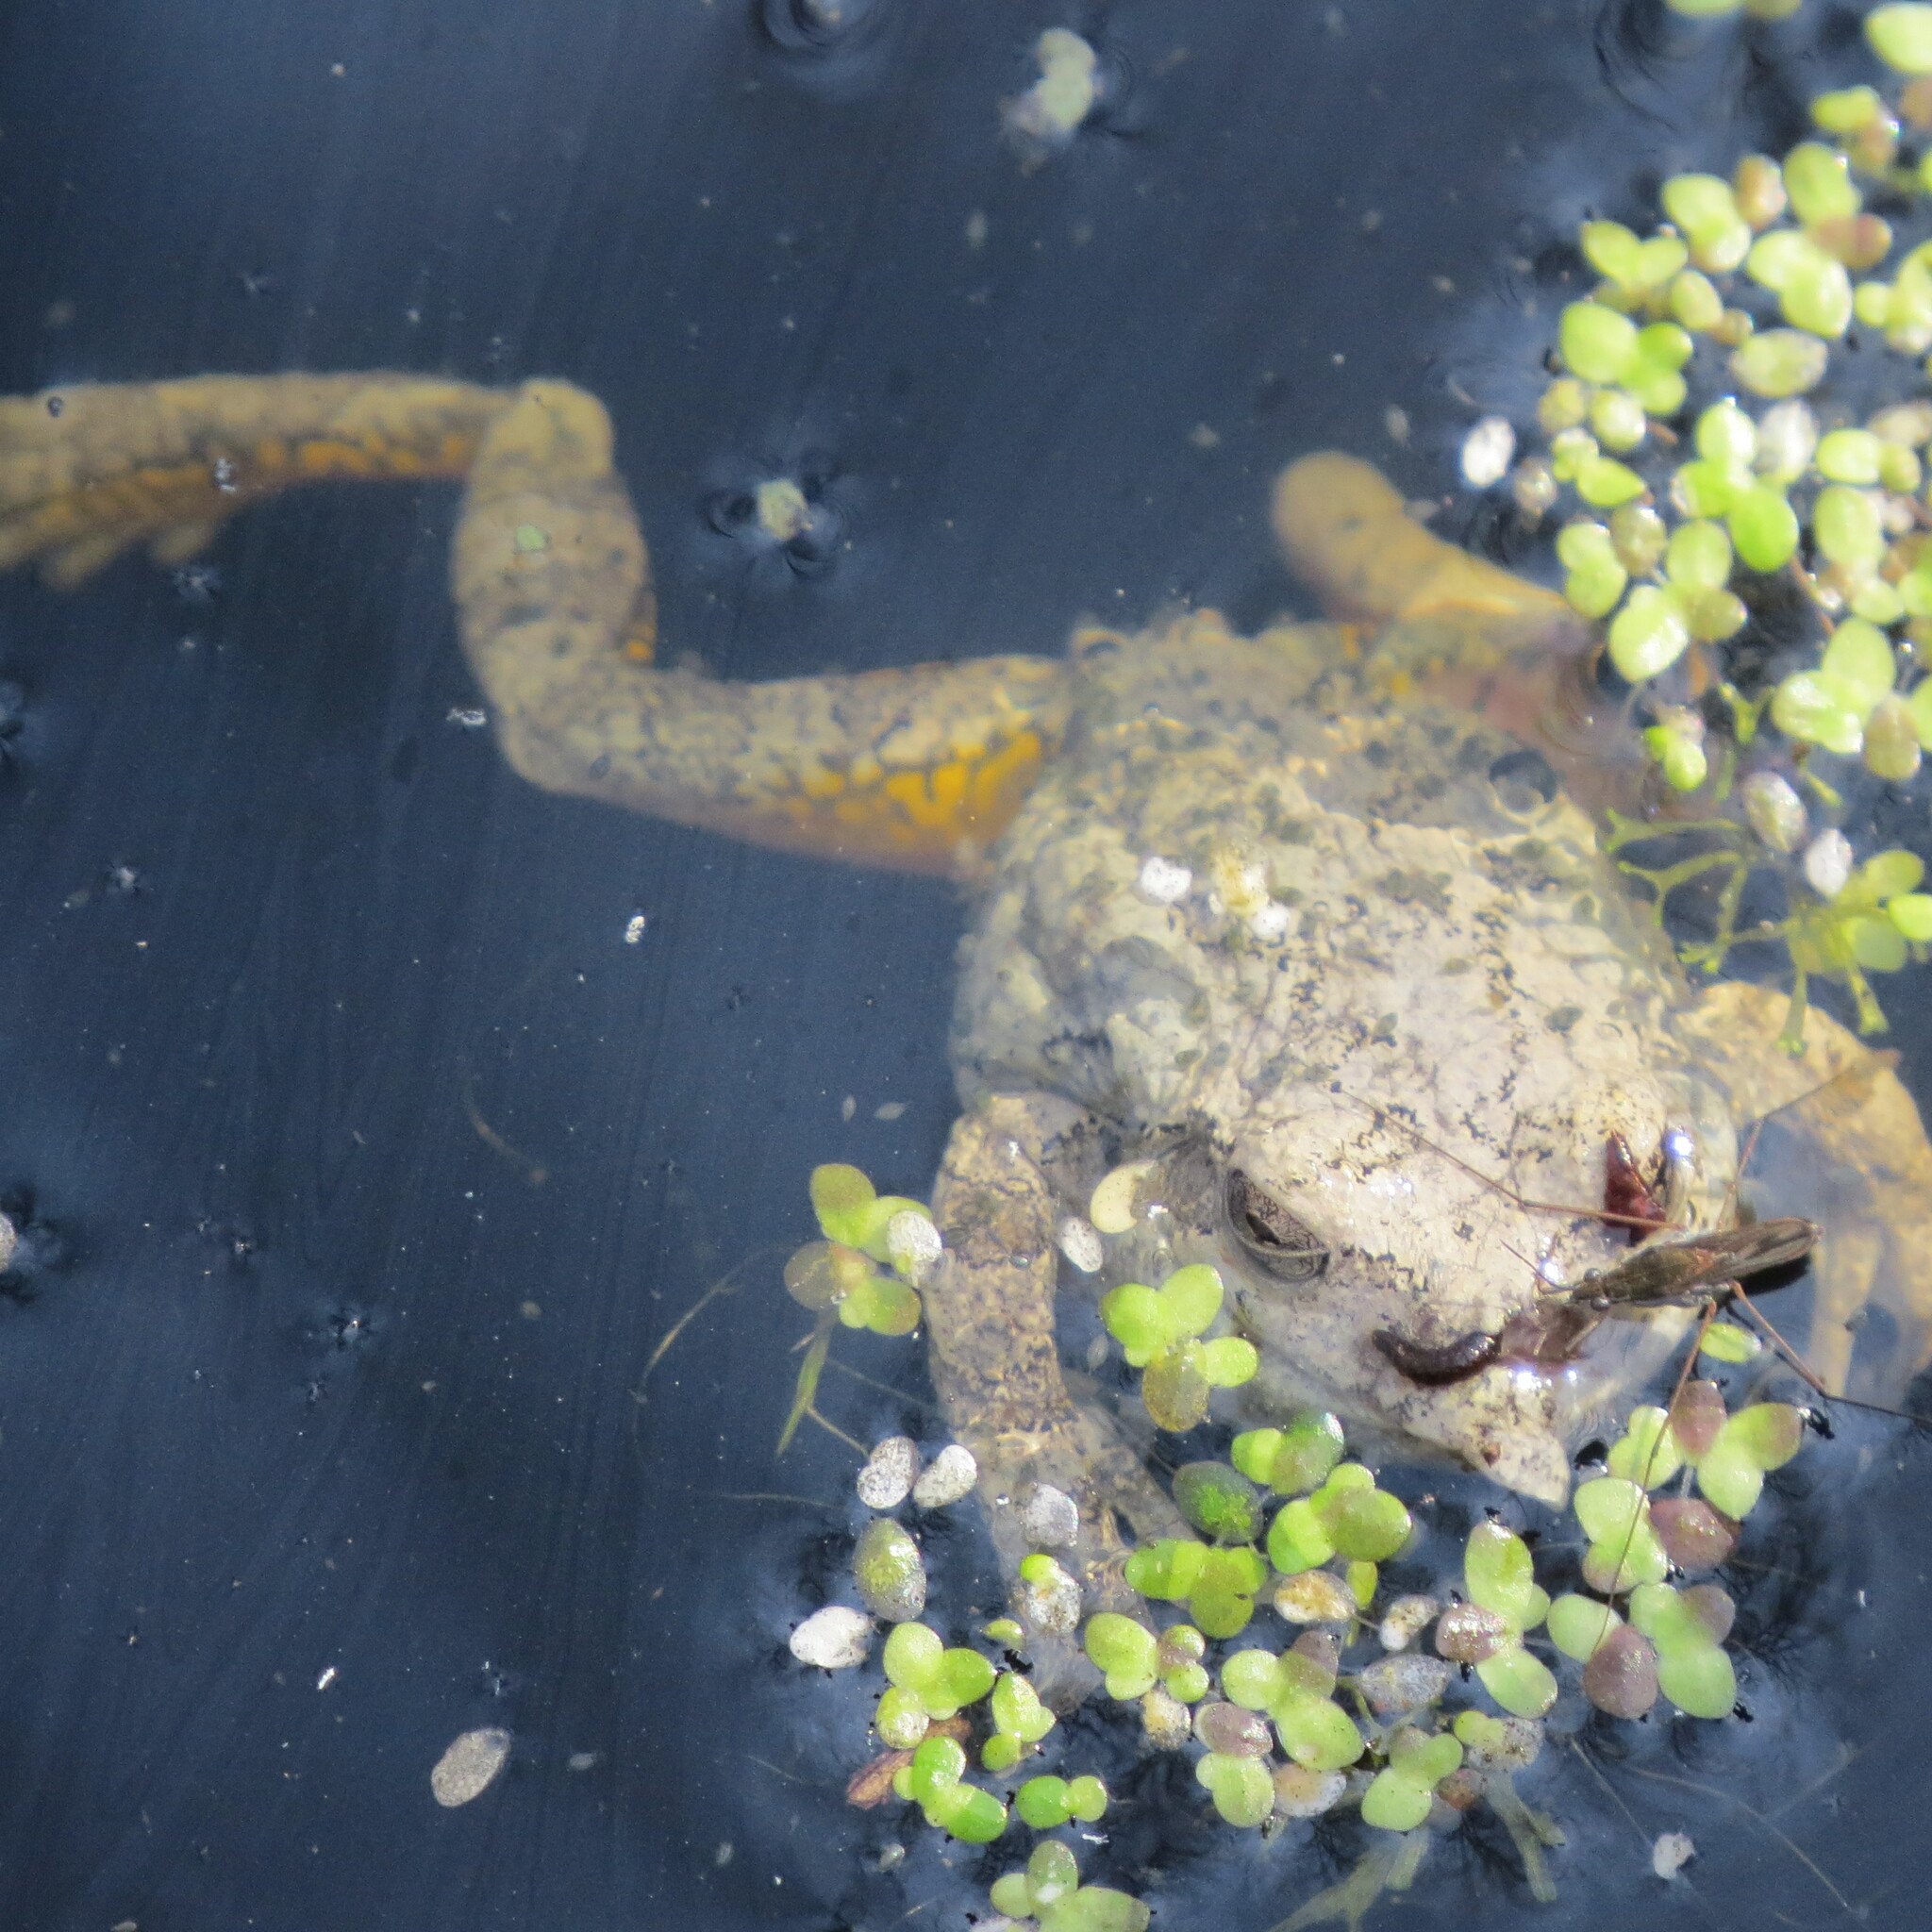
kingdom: Animalia
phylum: Chordata
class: Amphibia
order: Anura
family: Hylidae
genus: Hyla
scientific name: Hyla
